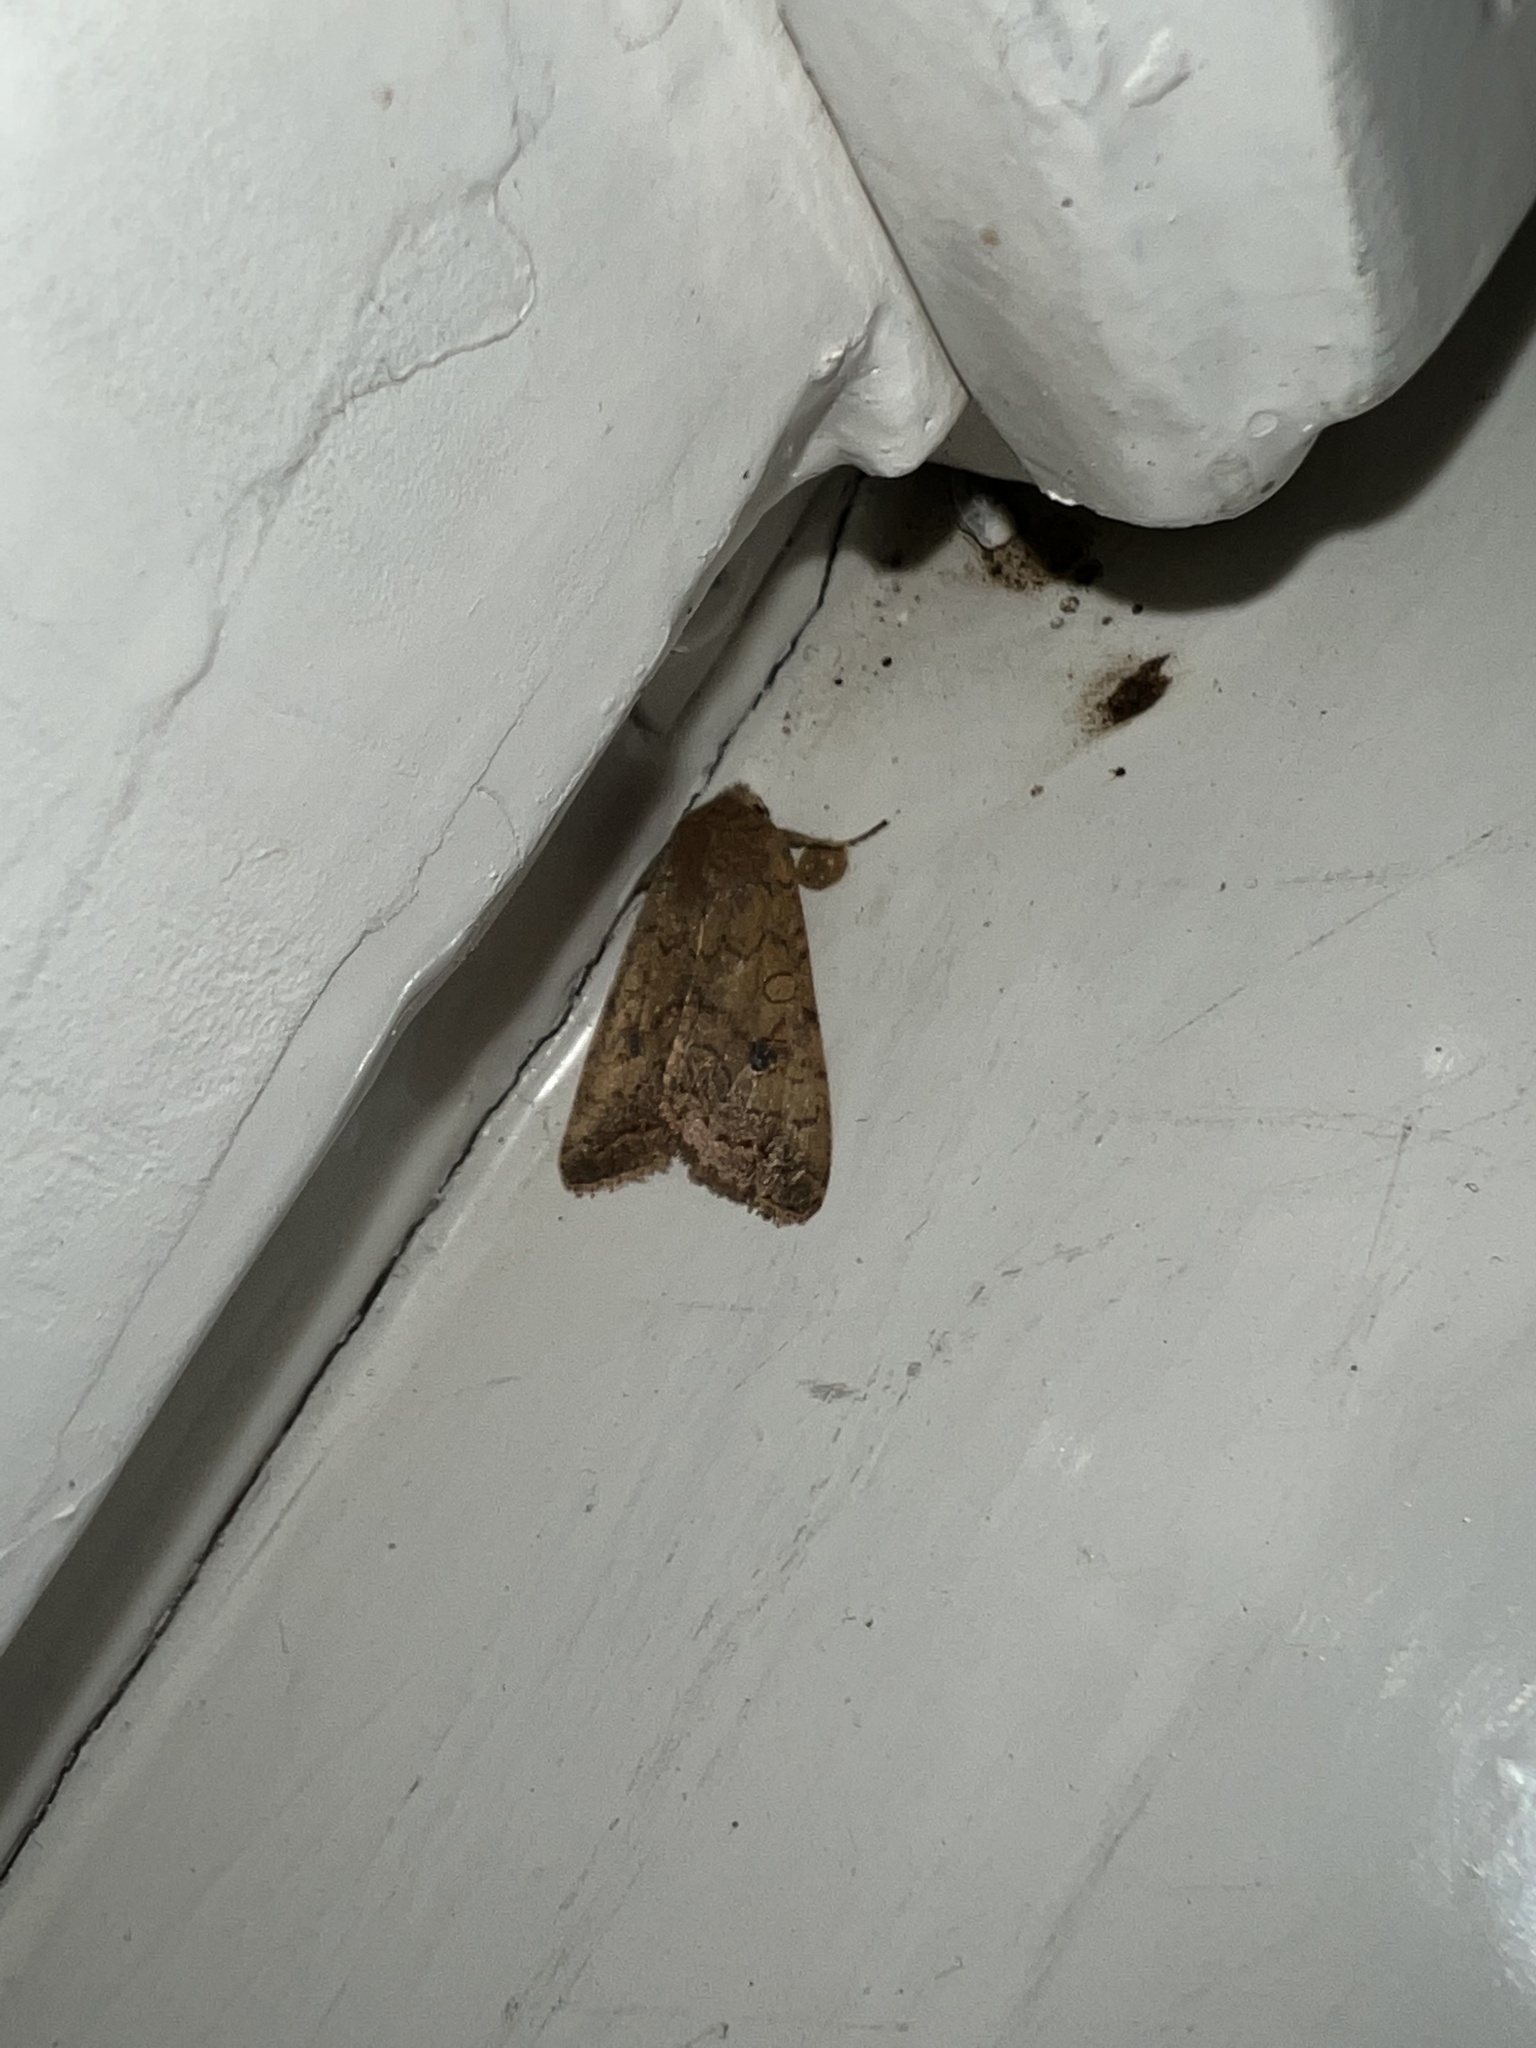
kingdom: Animalia
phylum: Arthropoda
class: Insecta
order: Lepidoptera
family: Noctuidae
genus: Sunira
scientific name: Sunira circellaris
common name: Brick
